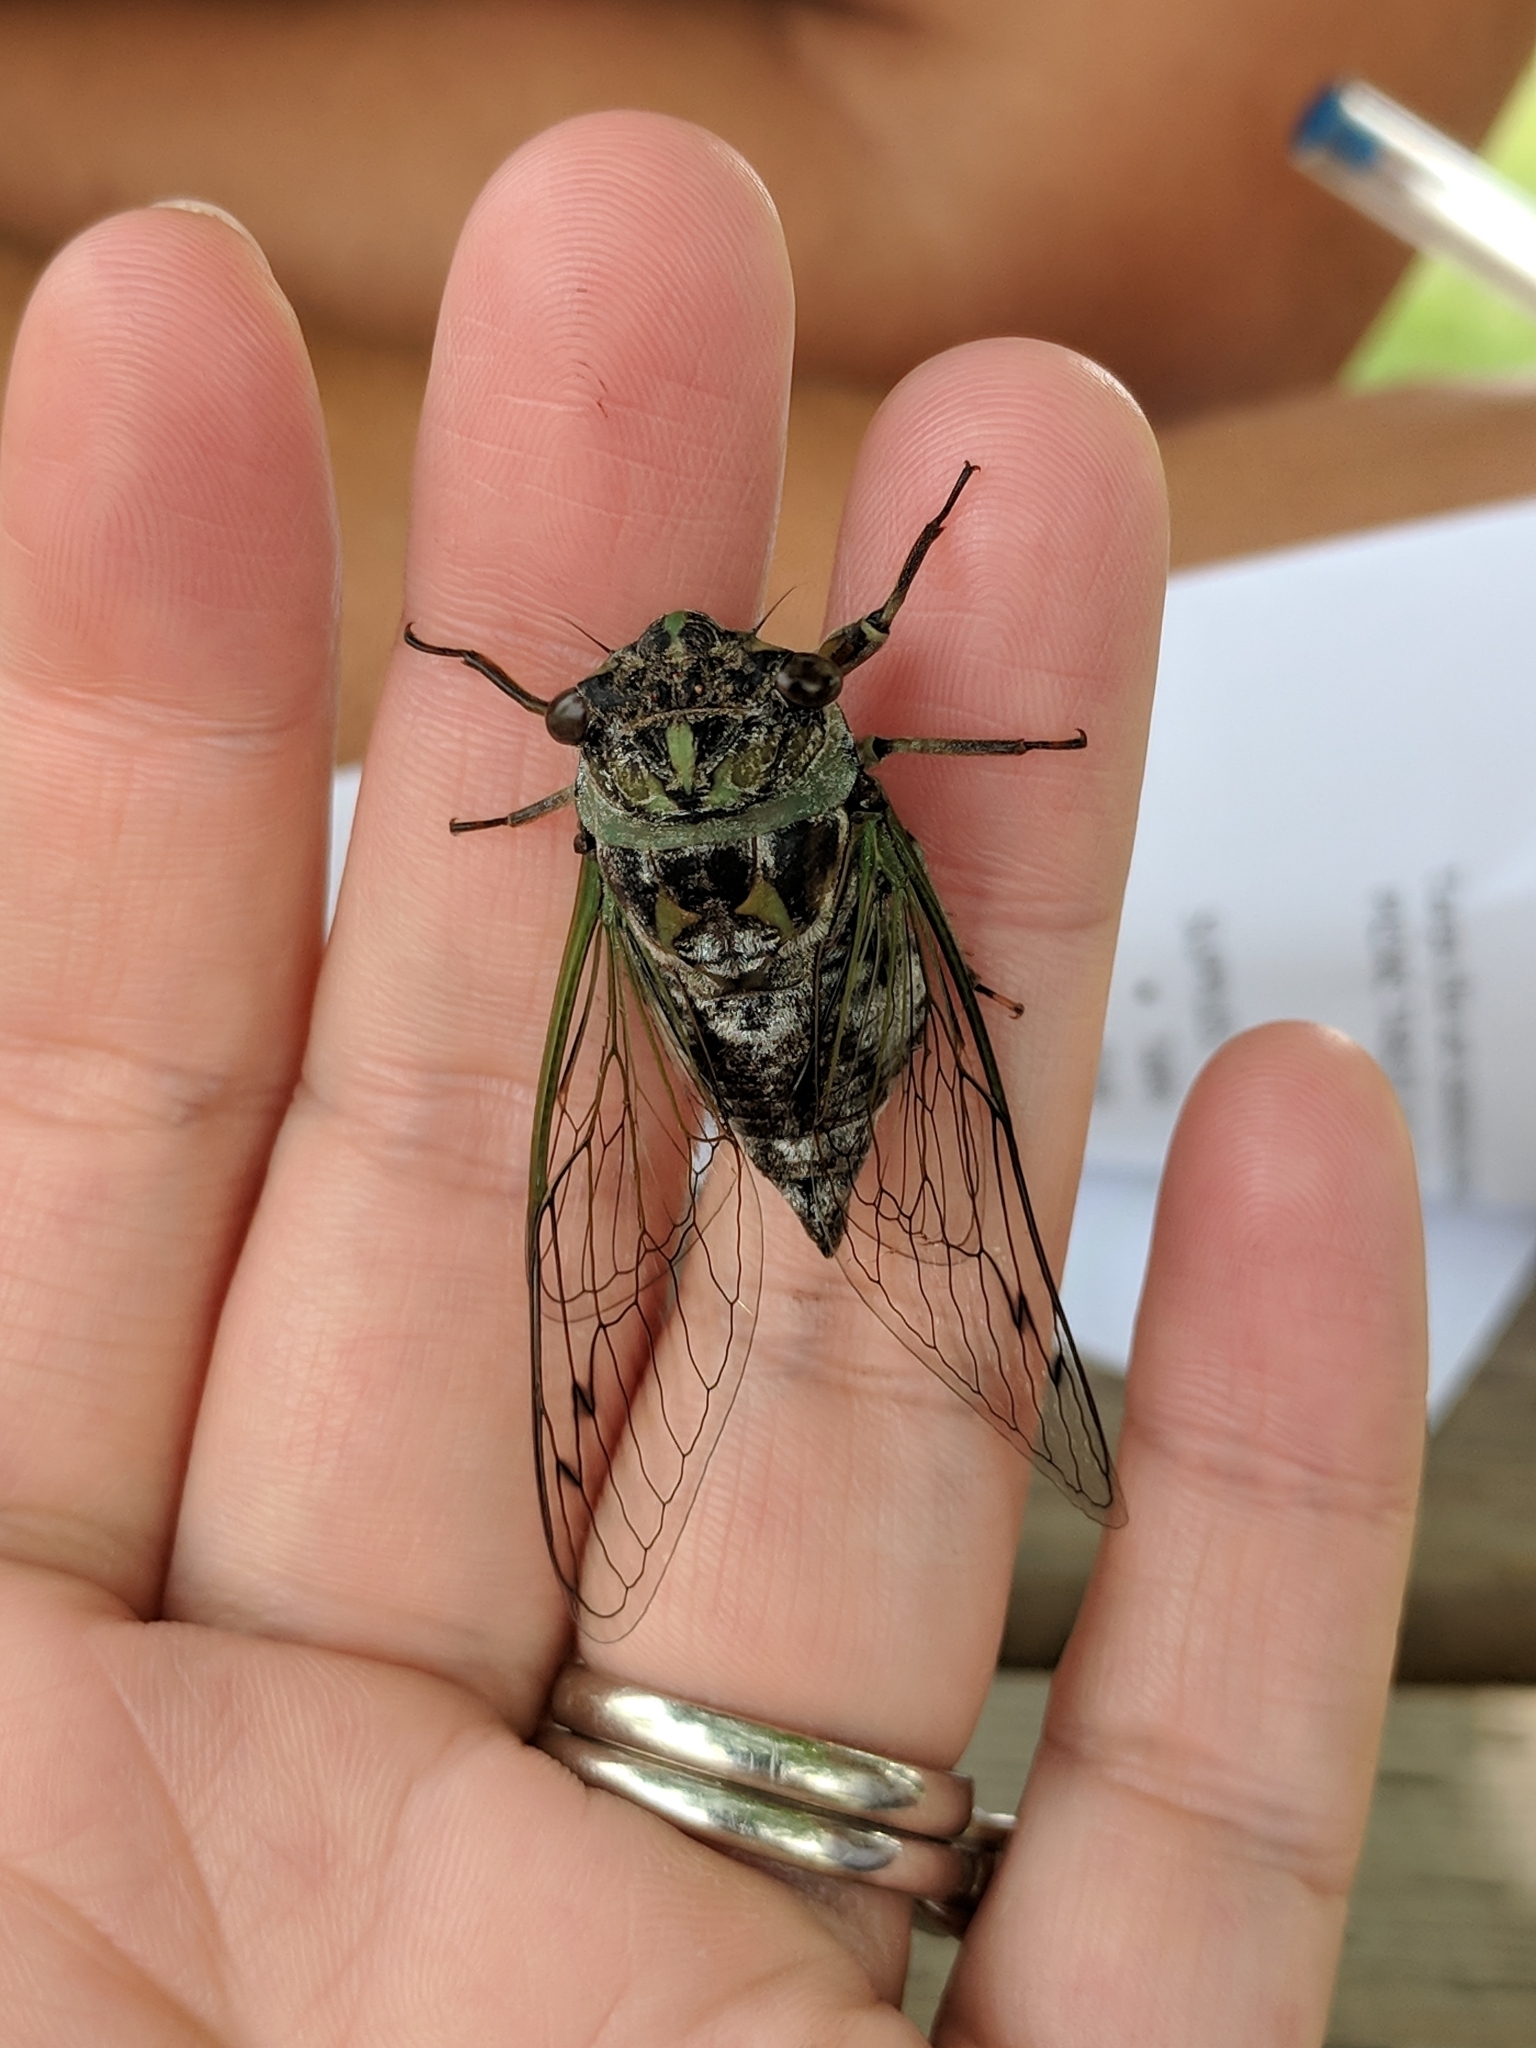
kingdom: Animalia
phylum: Arthropoda
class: Insecta
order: Hemiptera
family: Cicadidae
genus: Neotibicen
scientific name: Neotibicen canicularis
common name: God-day cicada
